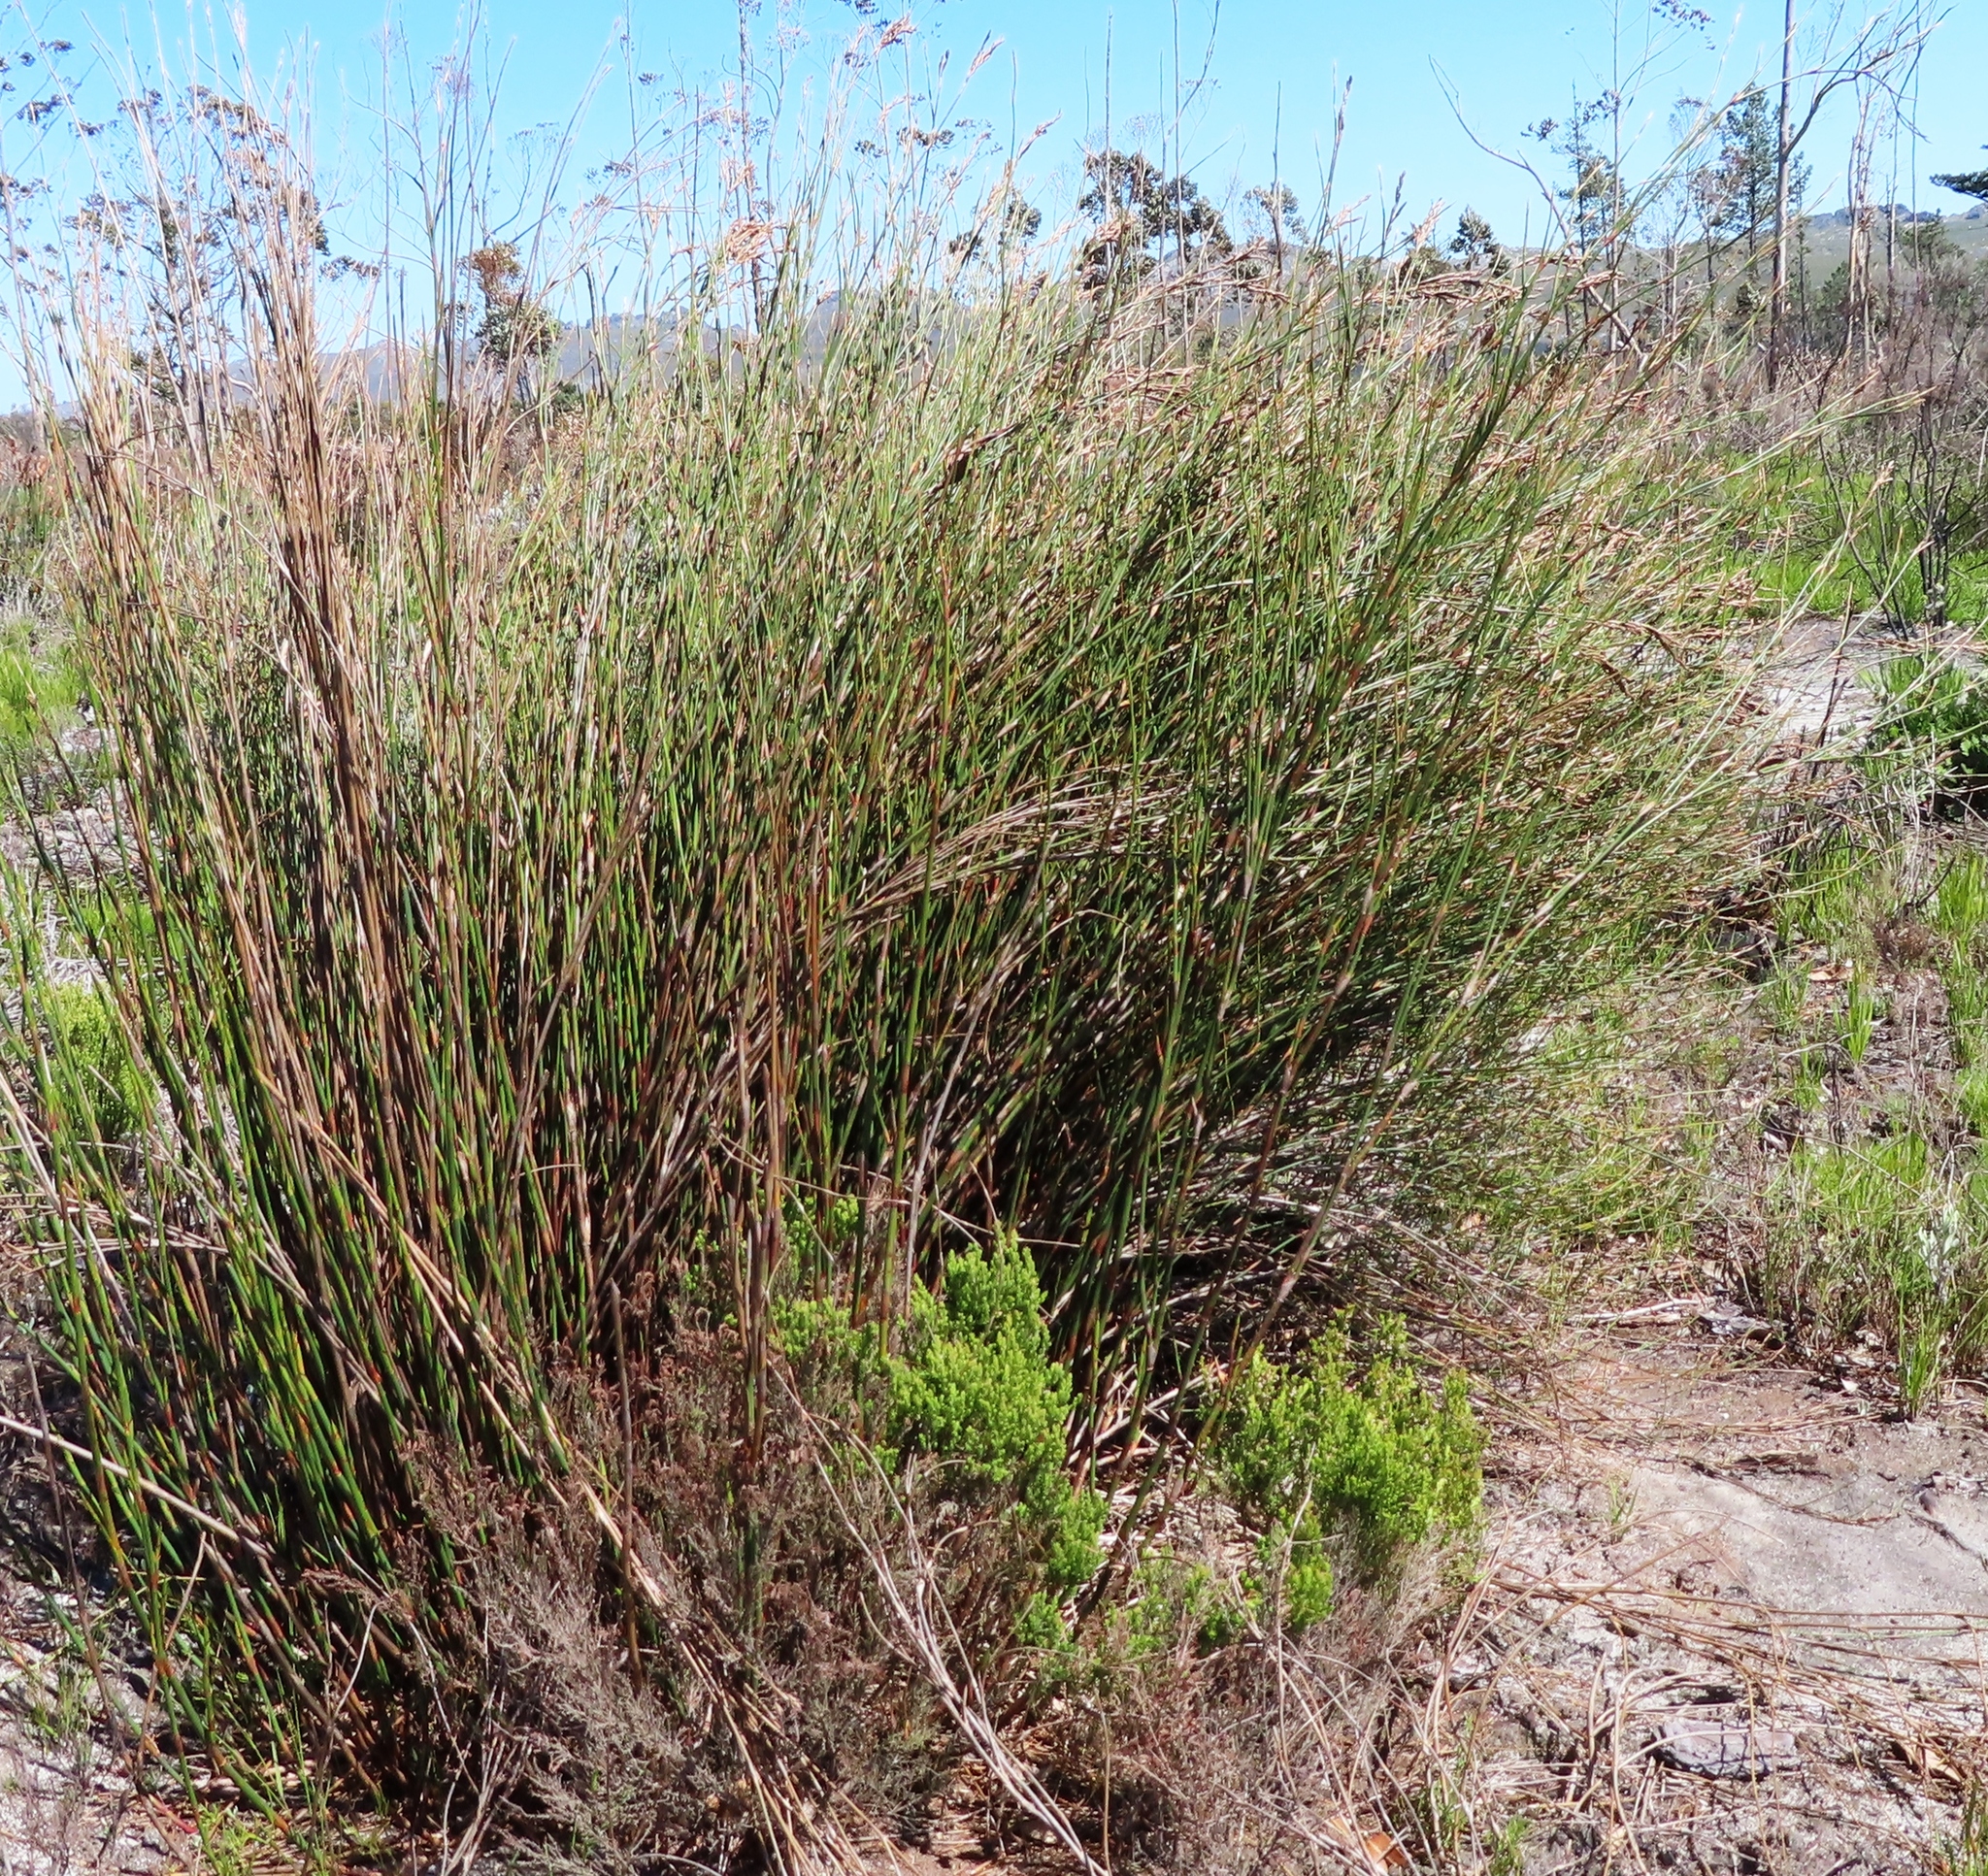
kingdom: Plantae
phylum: Tracheophyta
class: Liliopsida
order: Poales
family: Restionaceae
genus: Restio
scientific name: Restio dispar
